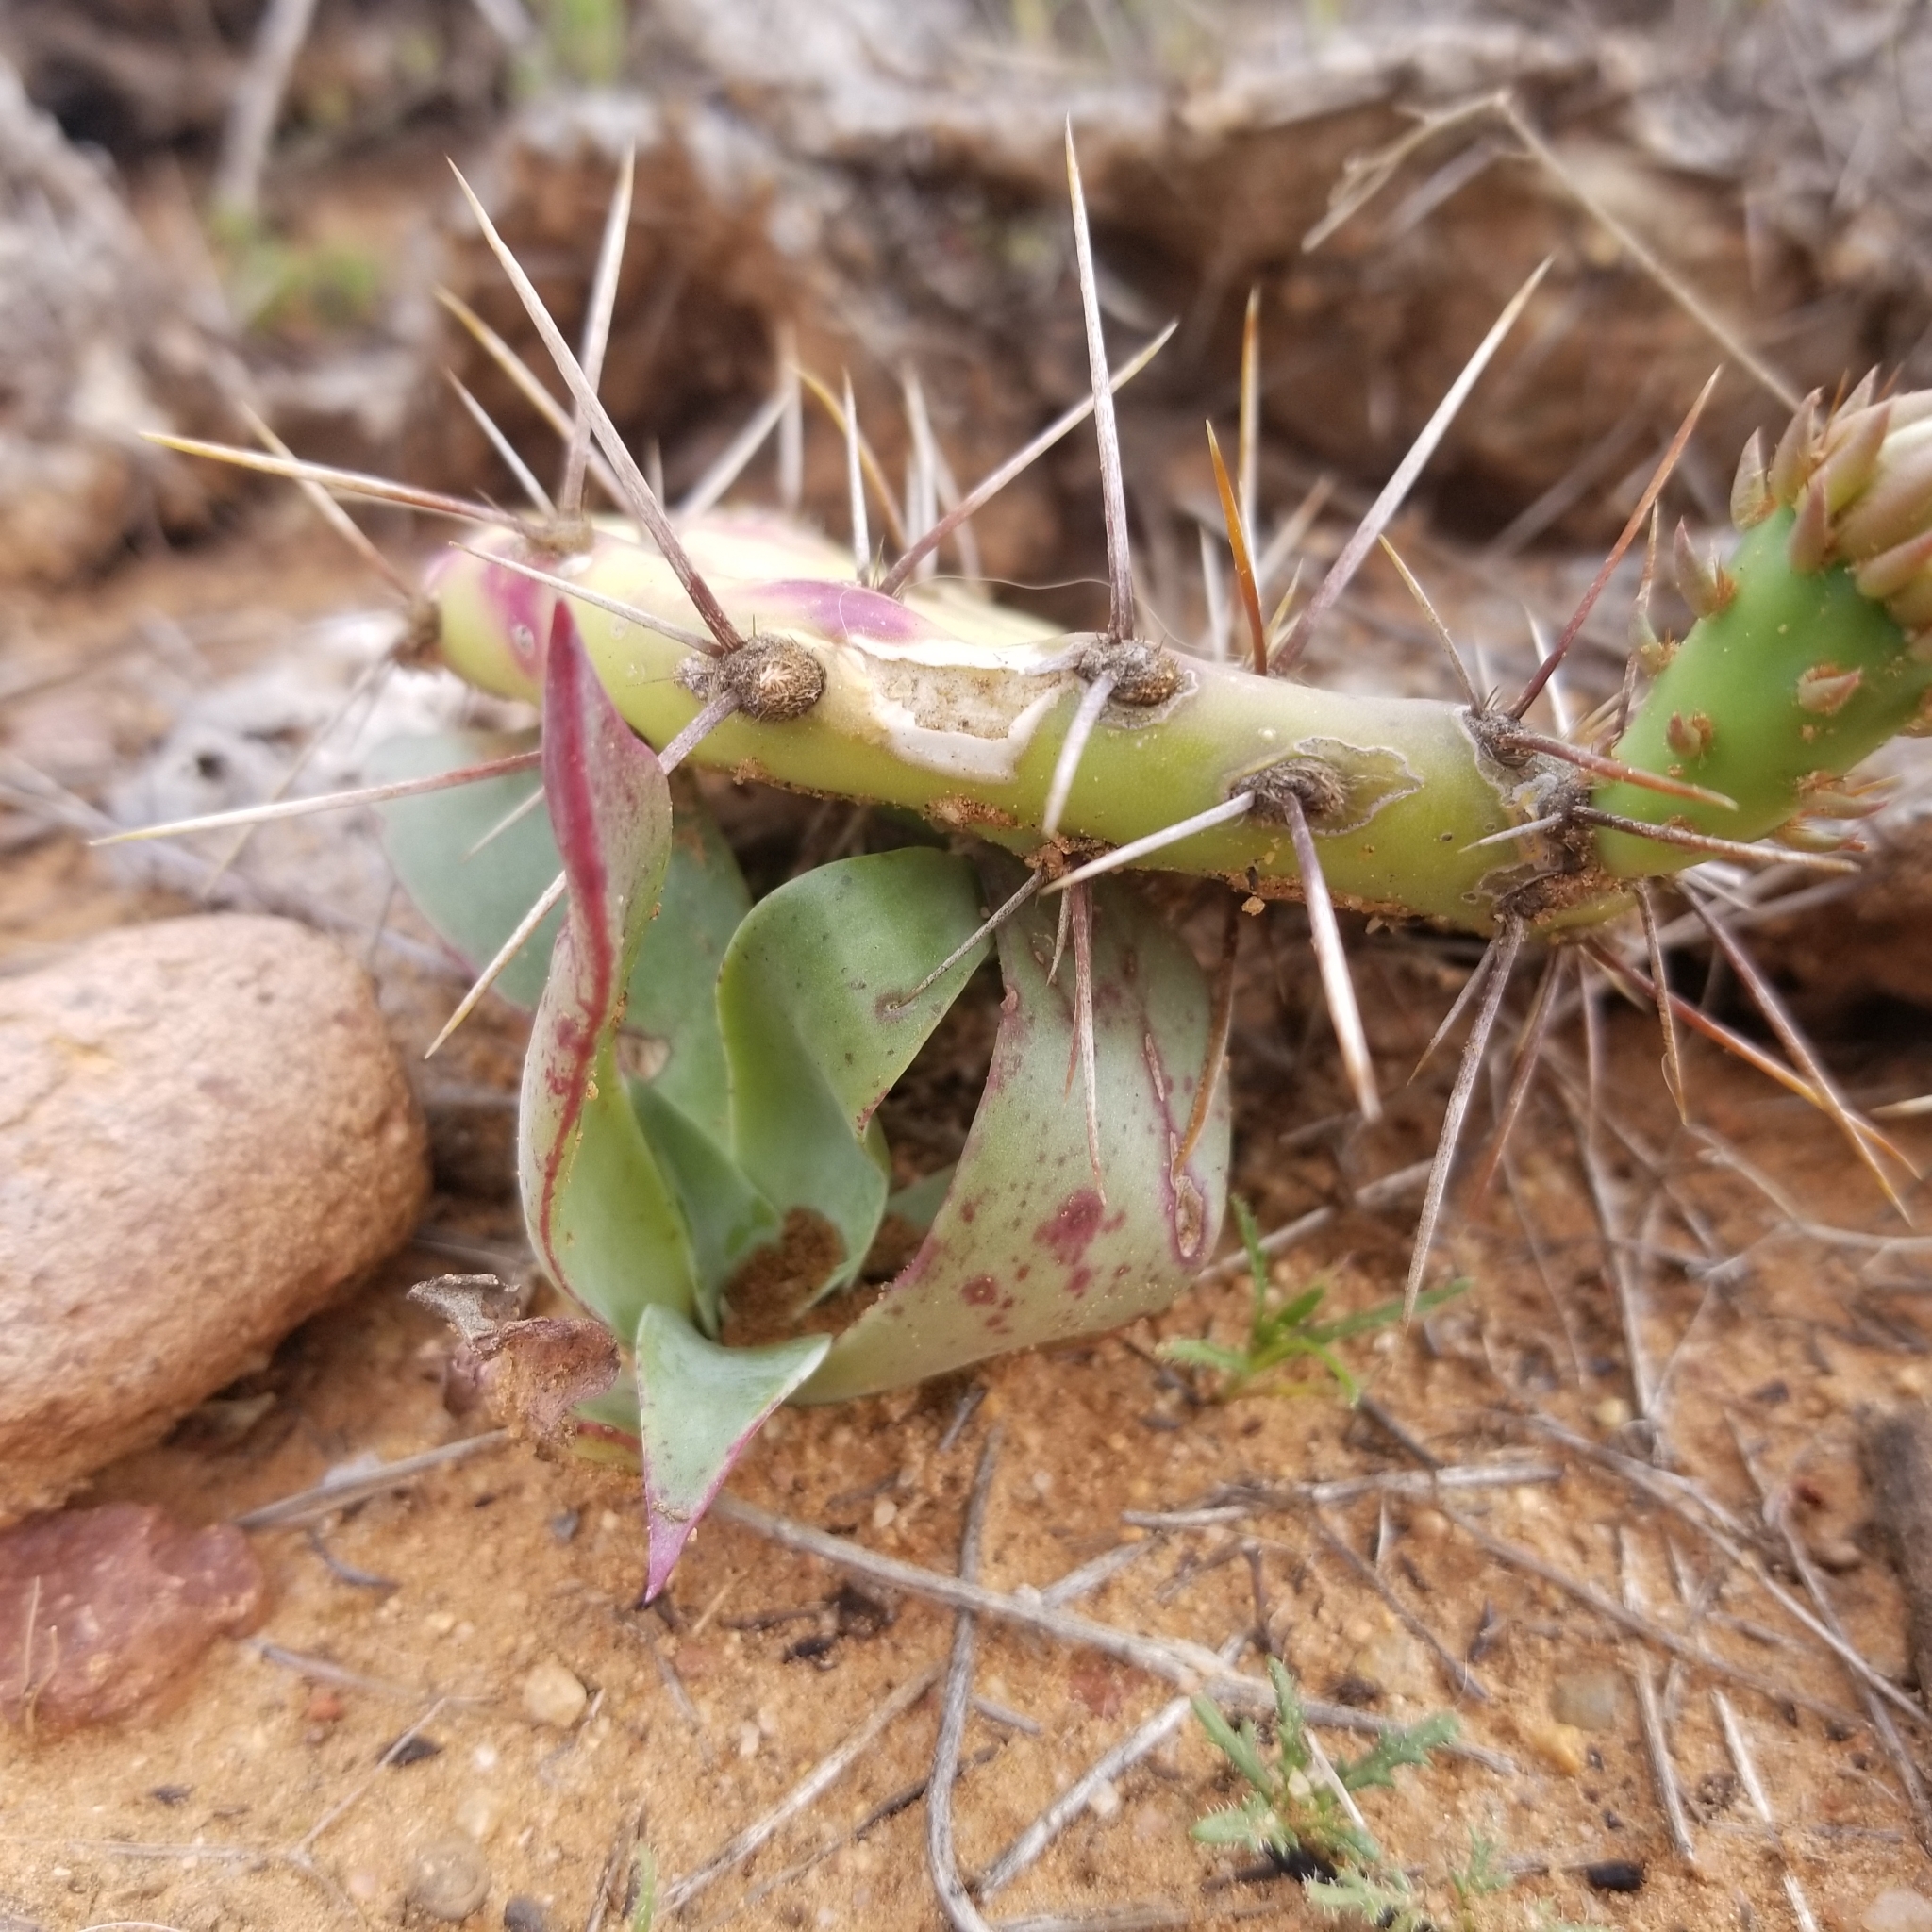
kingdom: Plantae
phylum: Tracheophyta
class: Magnoliopsida
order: Saxifragales
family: Crassulaceae
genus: Dudleya
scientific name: Dudleya pulverulenta
